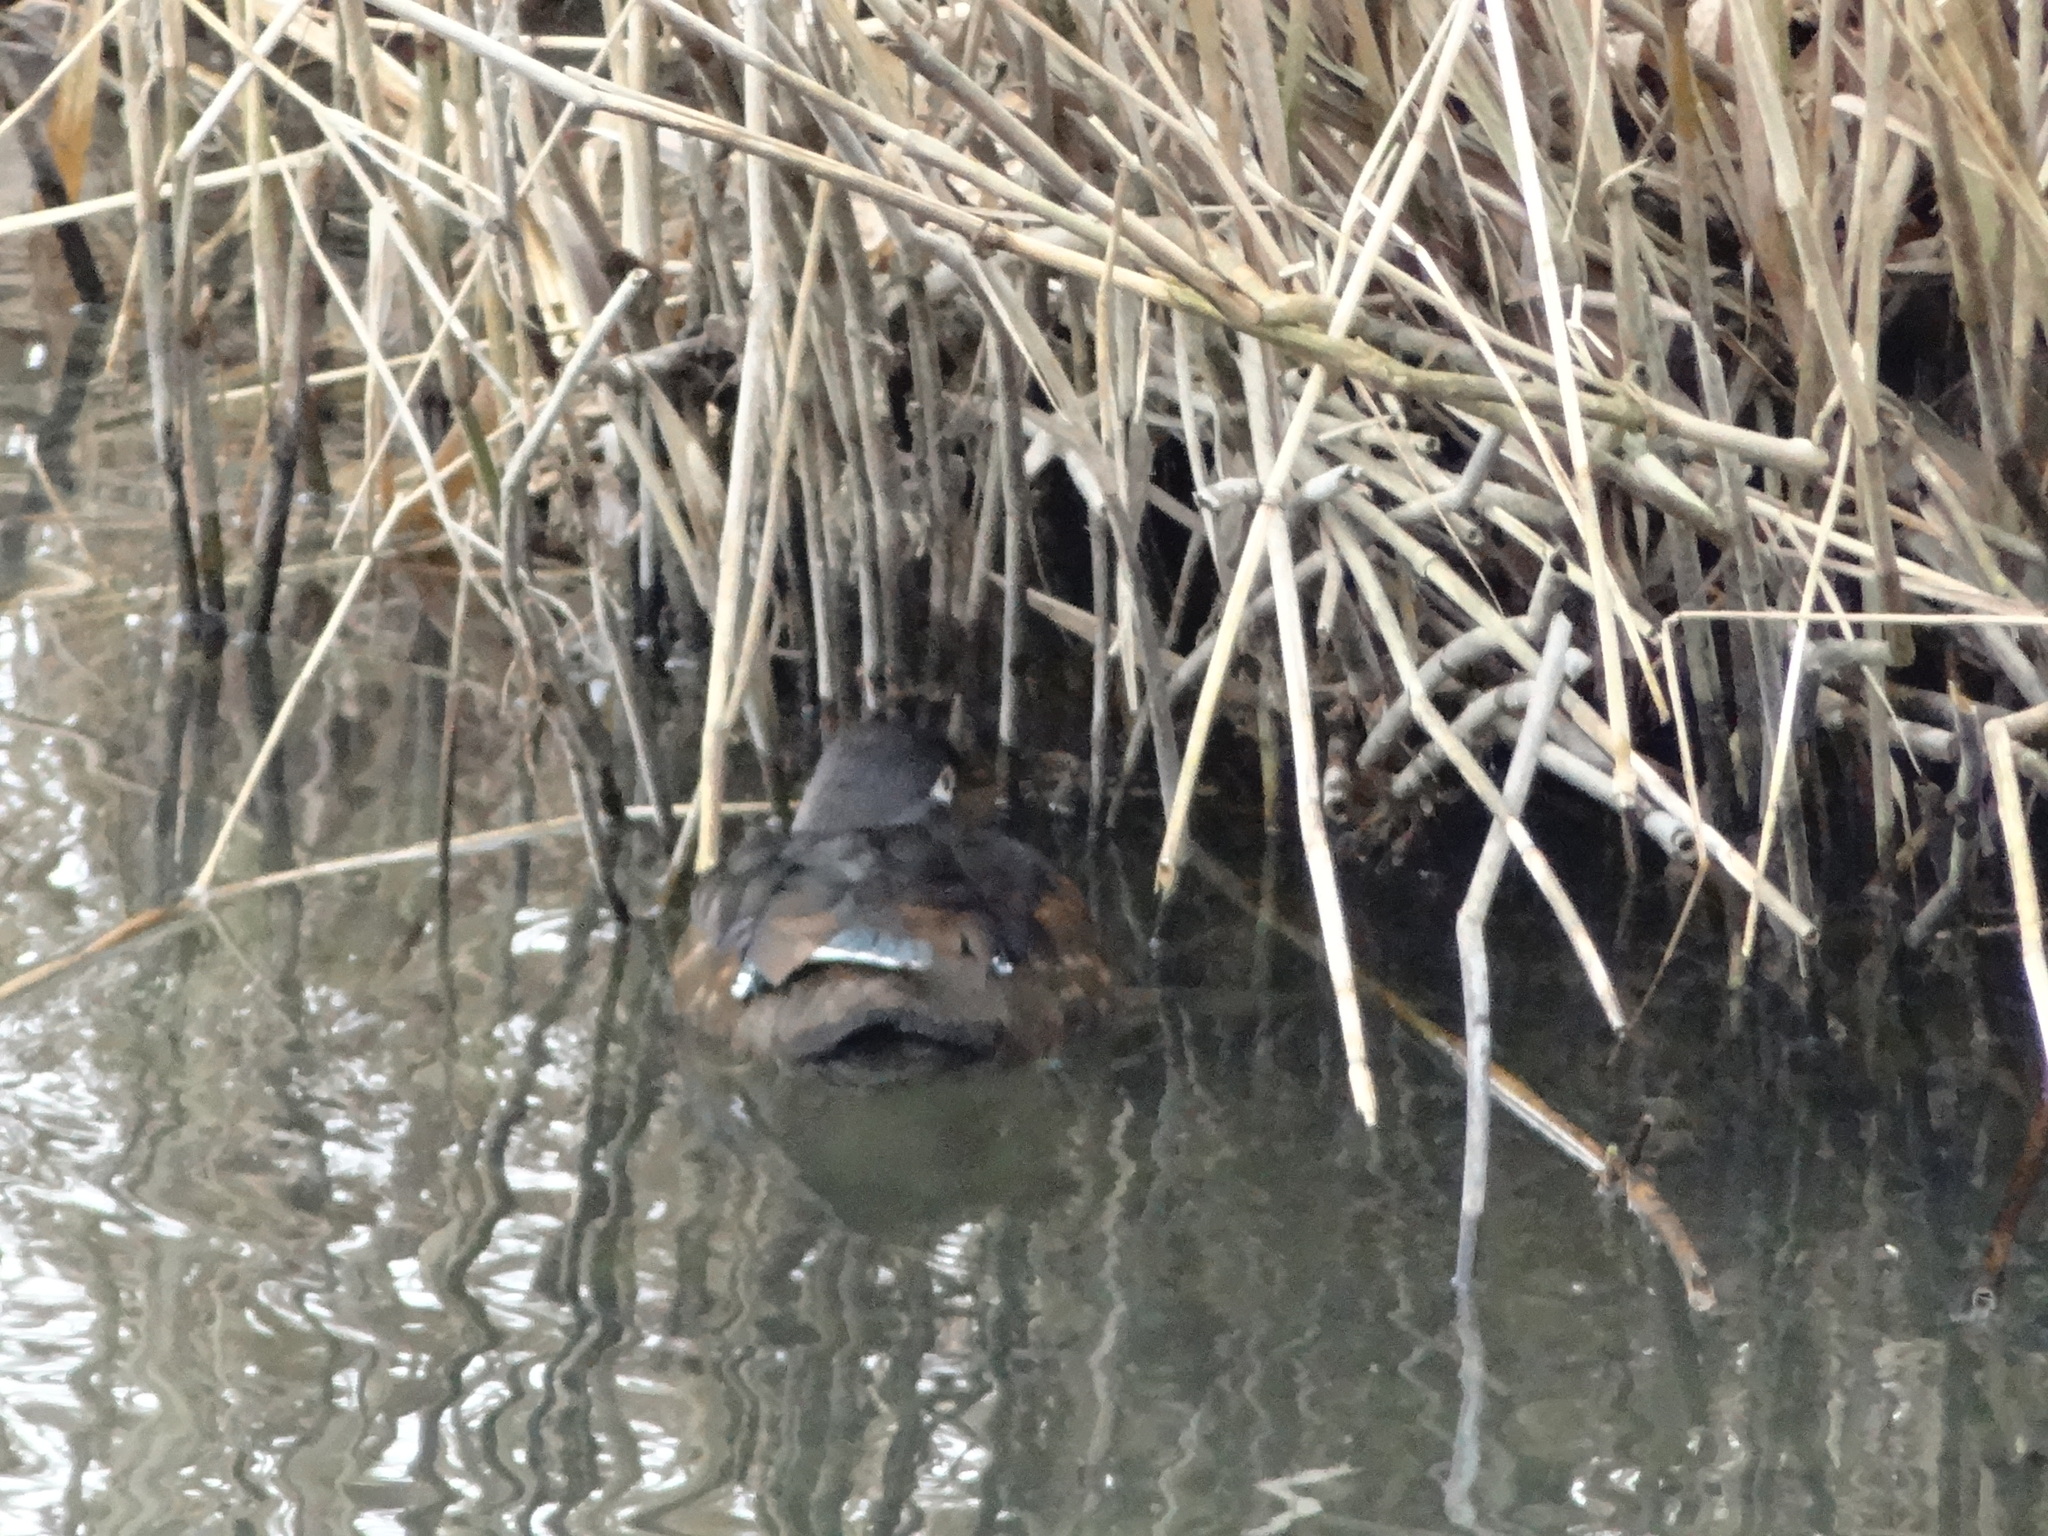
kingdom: Animalia
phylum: Chordata
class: Aves
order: Anseriformes
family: Anatidae
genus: Aix
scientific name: Aix sponsa
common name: Wood duck
